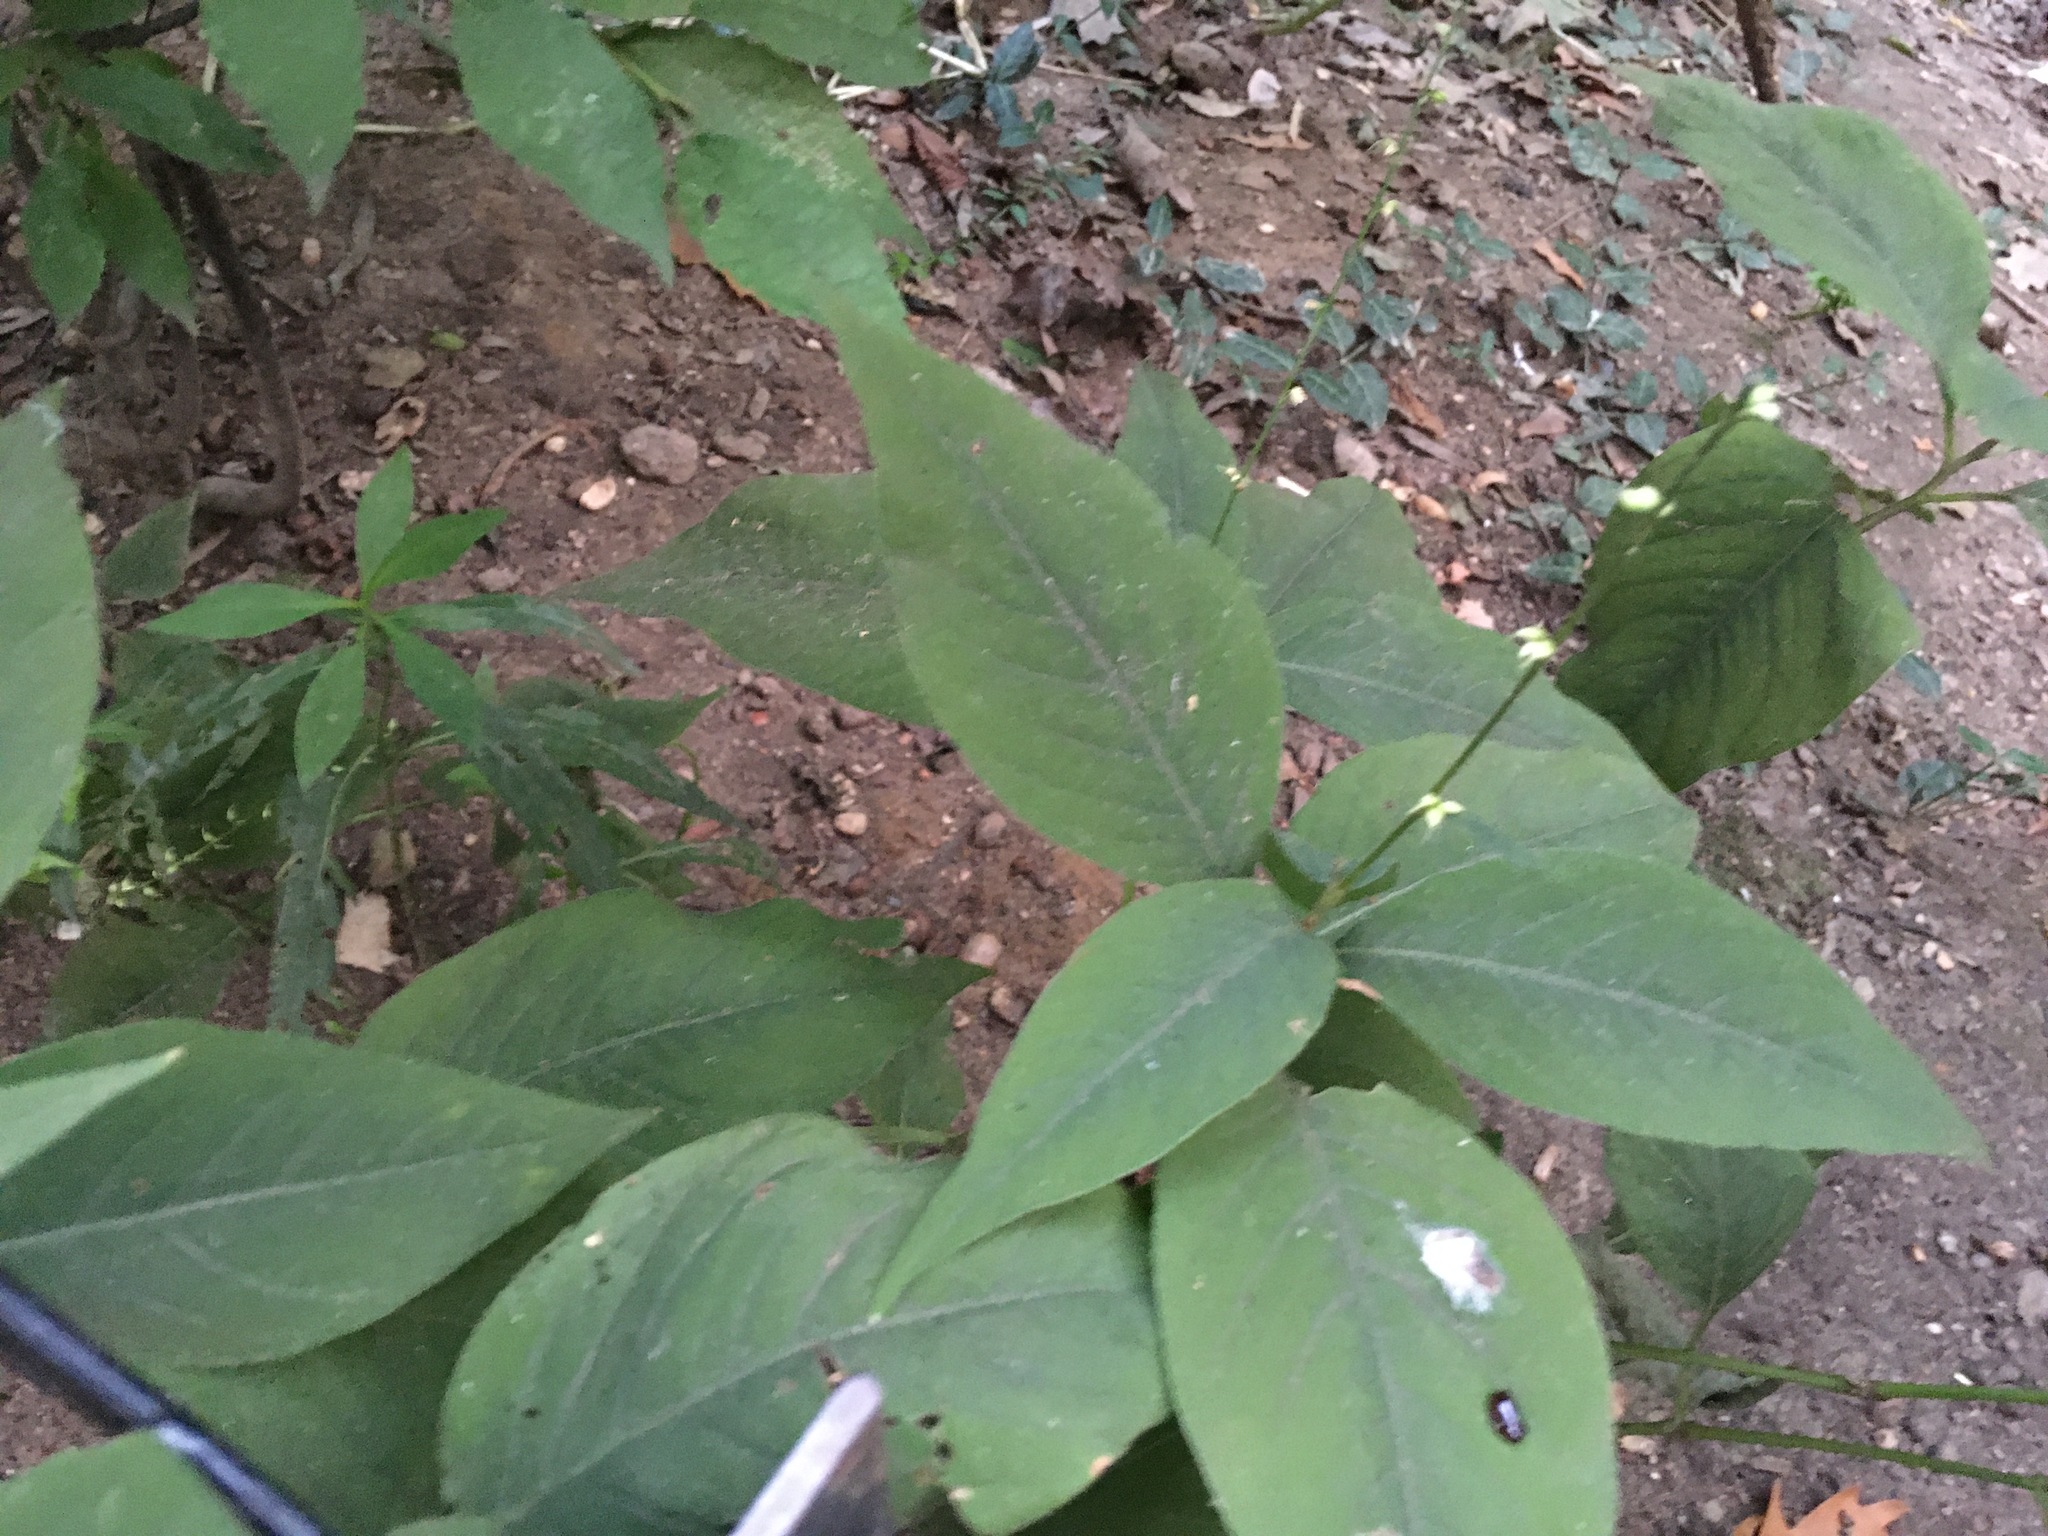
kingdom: Plantae
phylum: Tracheophyta
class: Magnoliopsida
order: Caryophyllales
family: Polygonaceae
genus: Persicaria
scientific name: Persicaria virginiana
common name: Jumpseed
